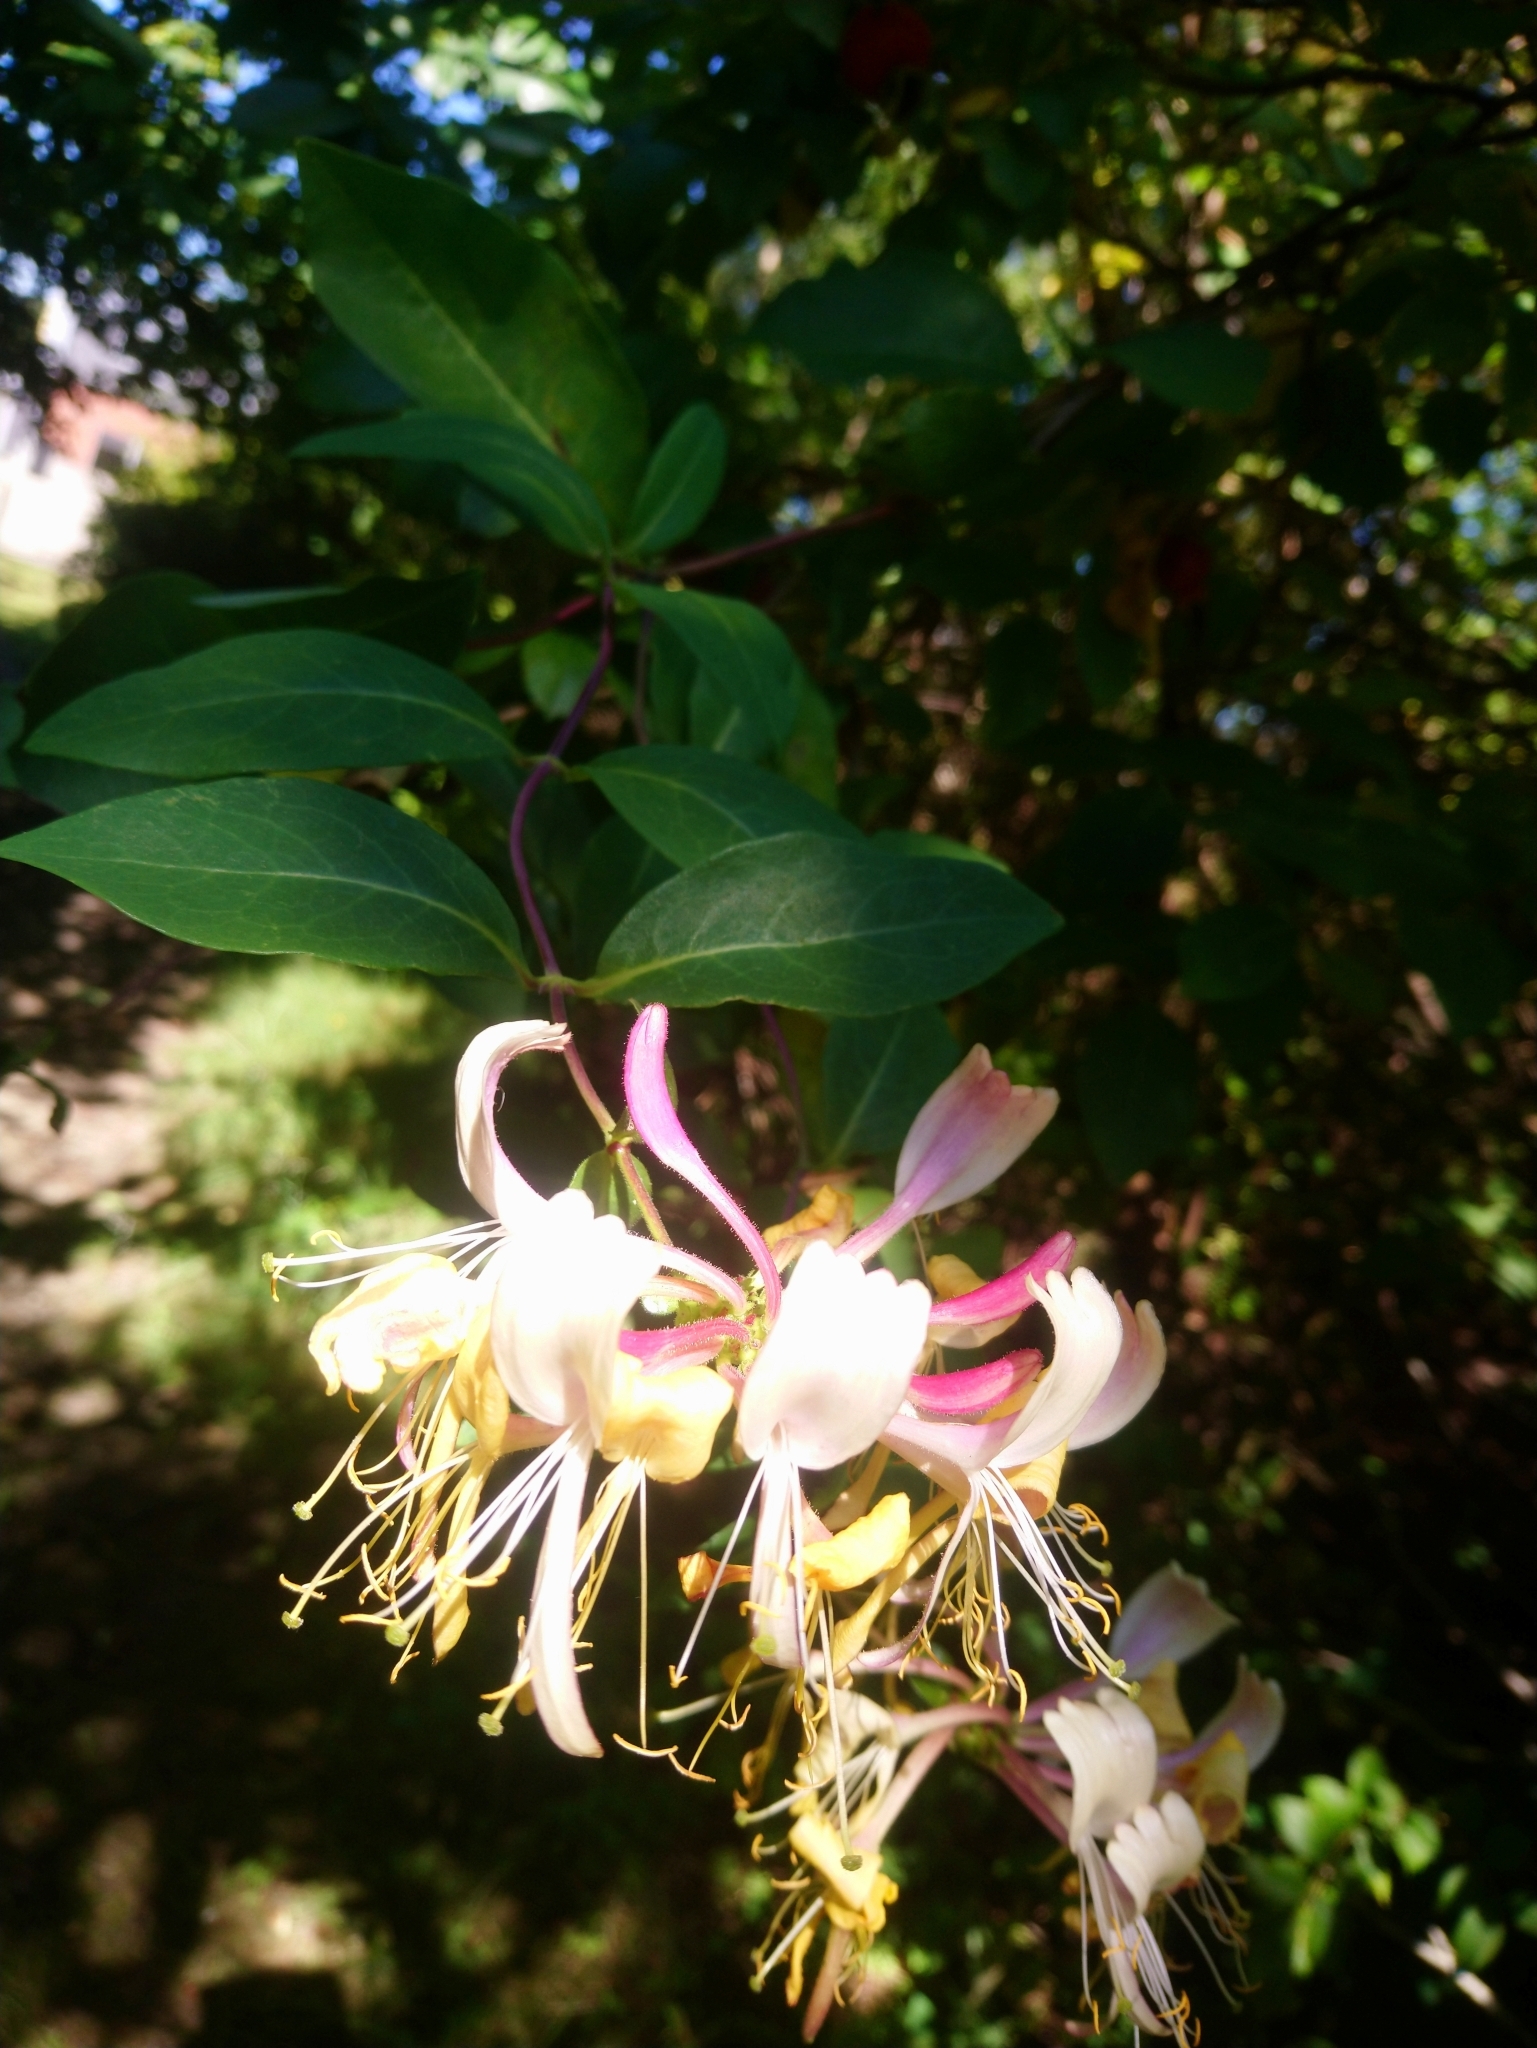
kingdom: Plantae
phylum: Tracheophyta
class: Magnoliopsida
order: Dipsacales
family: Caprifoliaceae
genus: Lonicera
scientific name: Lonicera periclymenum
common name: European honeysuckle
